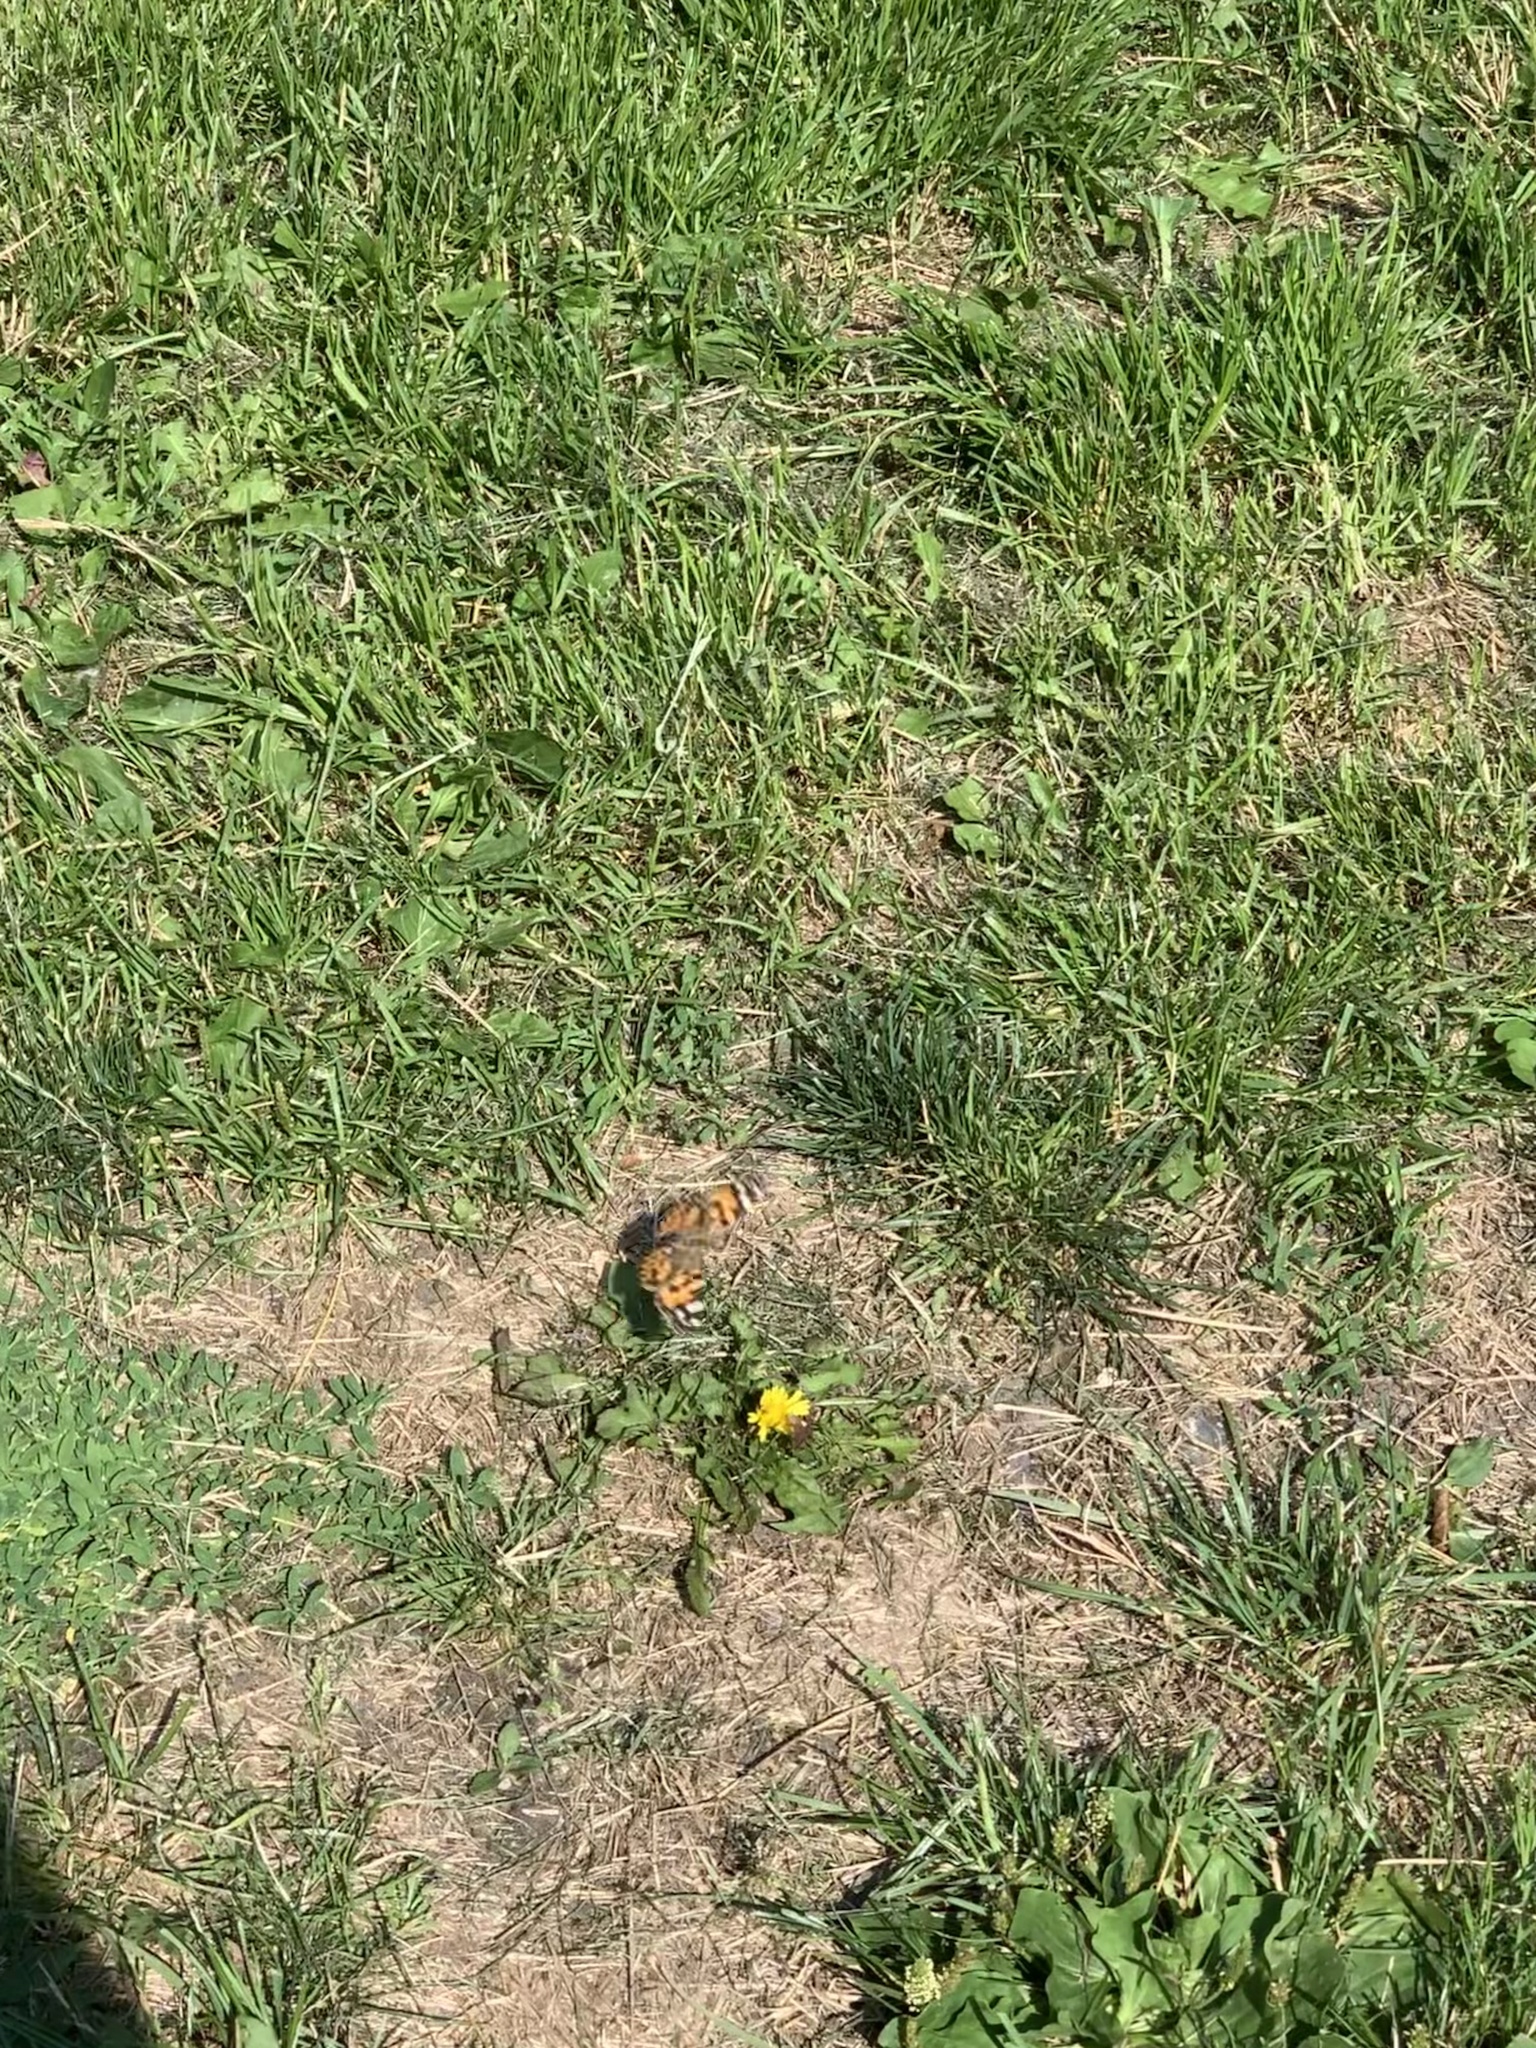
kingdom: Animalia
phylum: Arthropoda
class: Insecta
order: Lepidoptera
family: Nymphalidae
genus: Vanessa
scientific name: Vanessa cardui
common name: Painted lady
